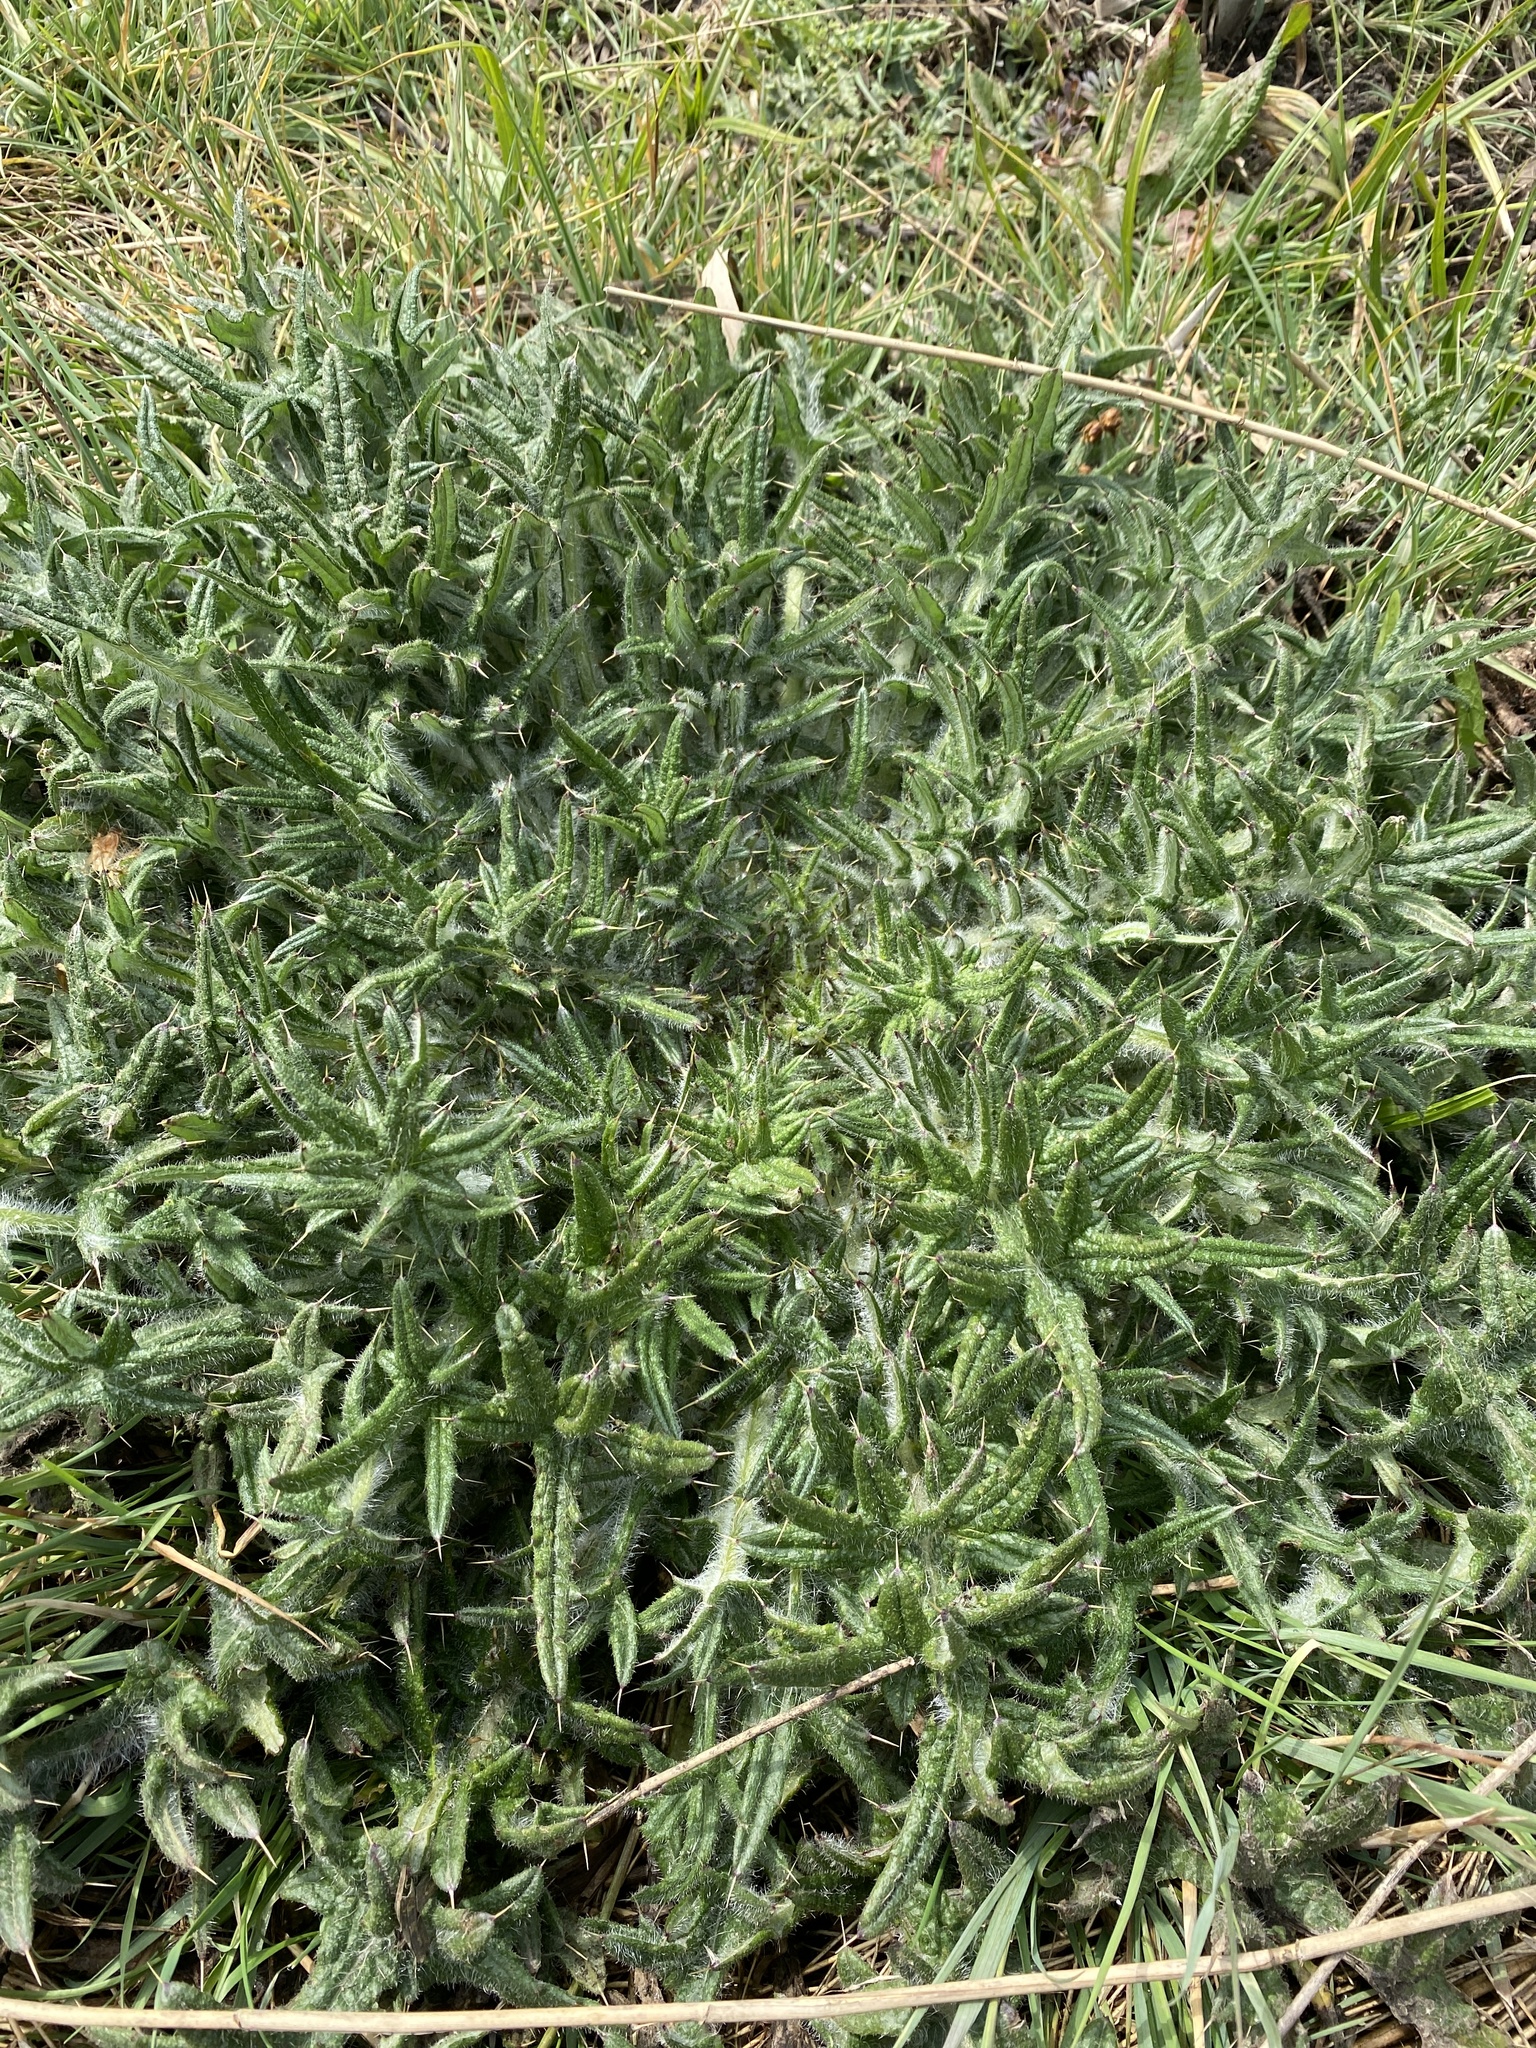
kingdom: Plantae
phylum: Tracheophyta
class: Magnoliopsida
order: Asterales
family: Asteraceae
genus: Cirsium
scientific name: Cirsium vulgare
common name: Bull thistle
